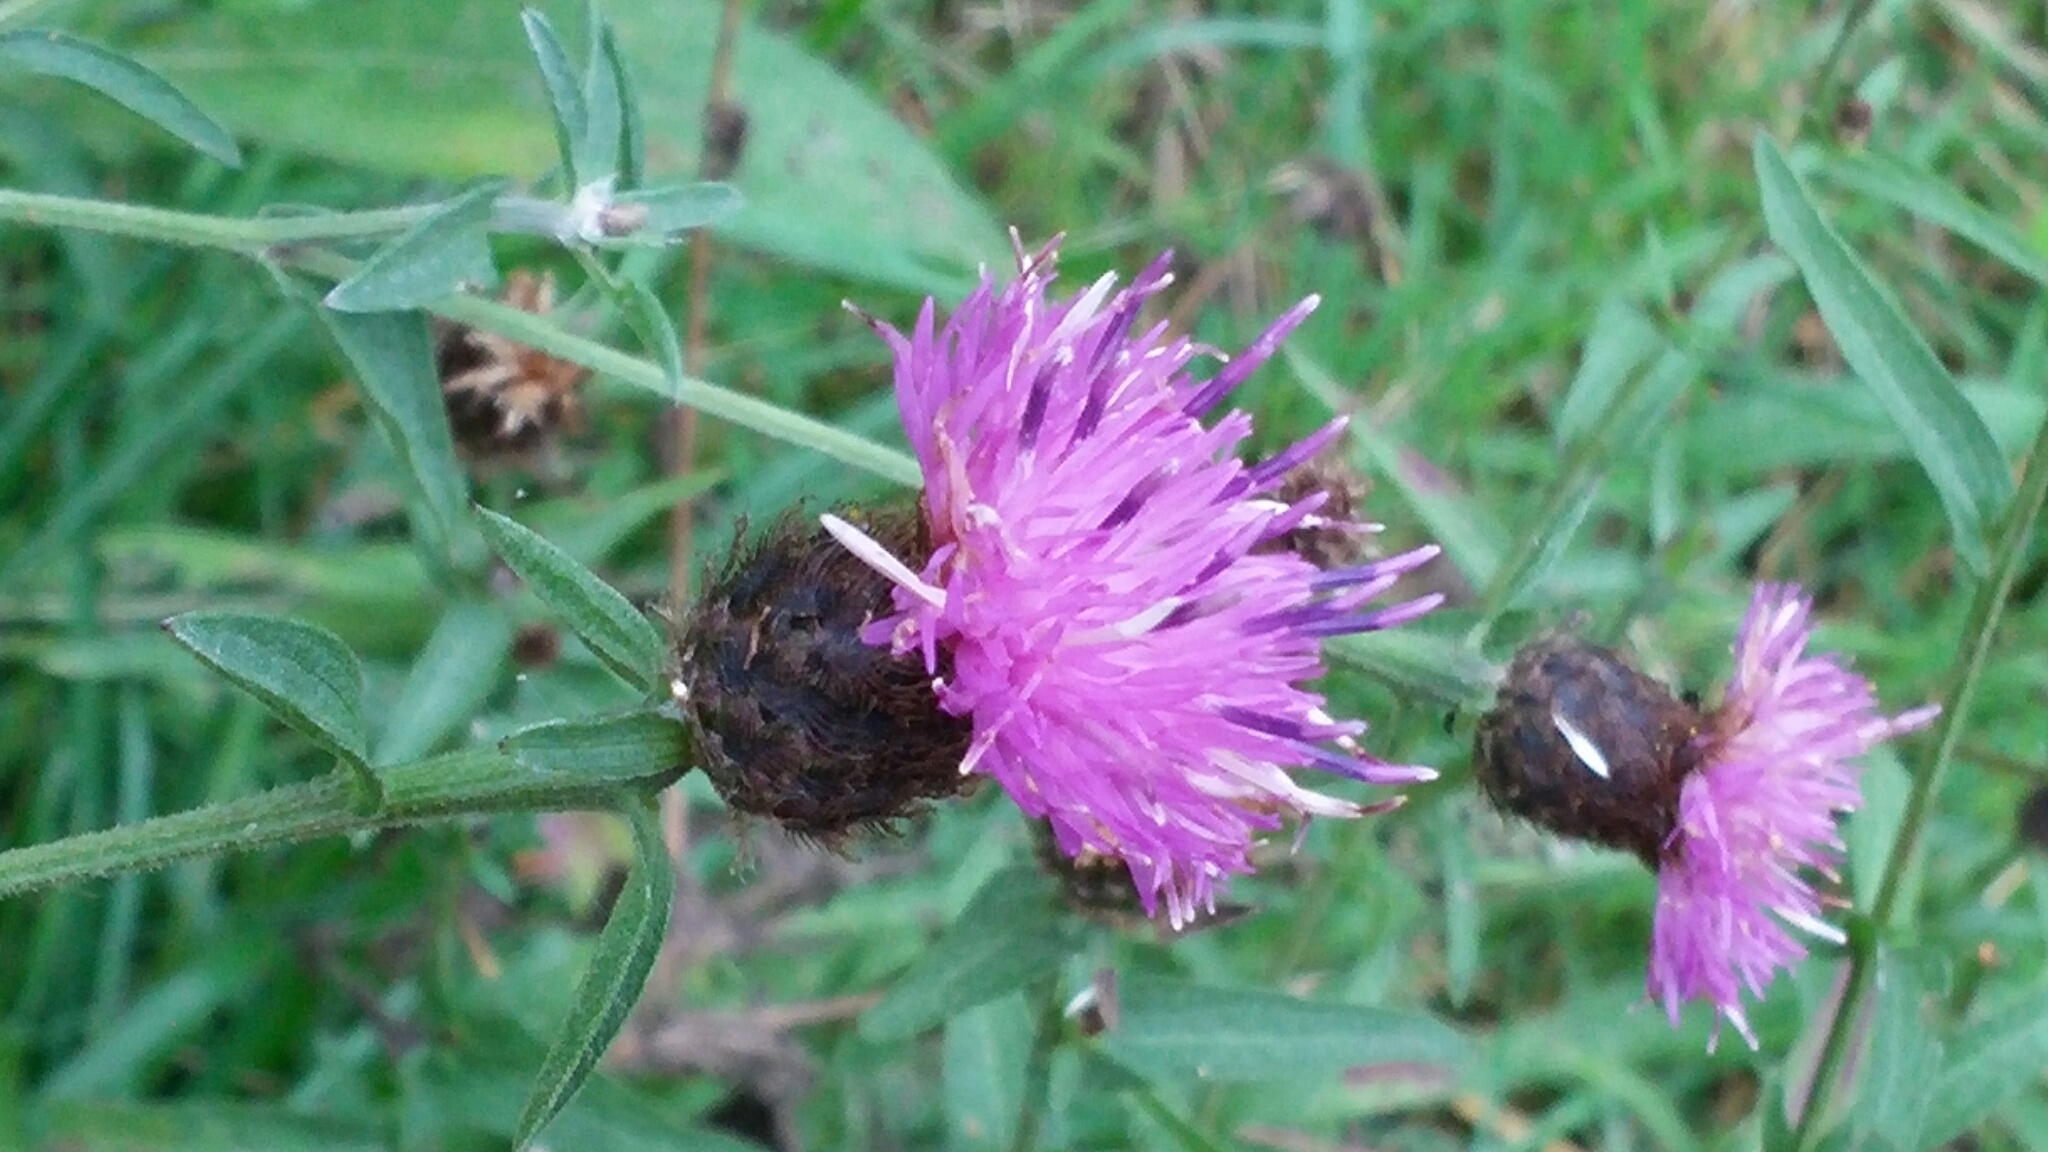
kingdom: Plantae
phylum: Tracheophyta
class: Magnoliopsida
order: Asterales
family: Asteraceae
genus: Centaurea
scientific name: Centaurea nigra
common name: Lesser knapweed
